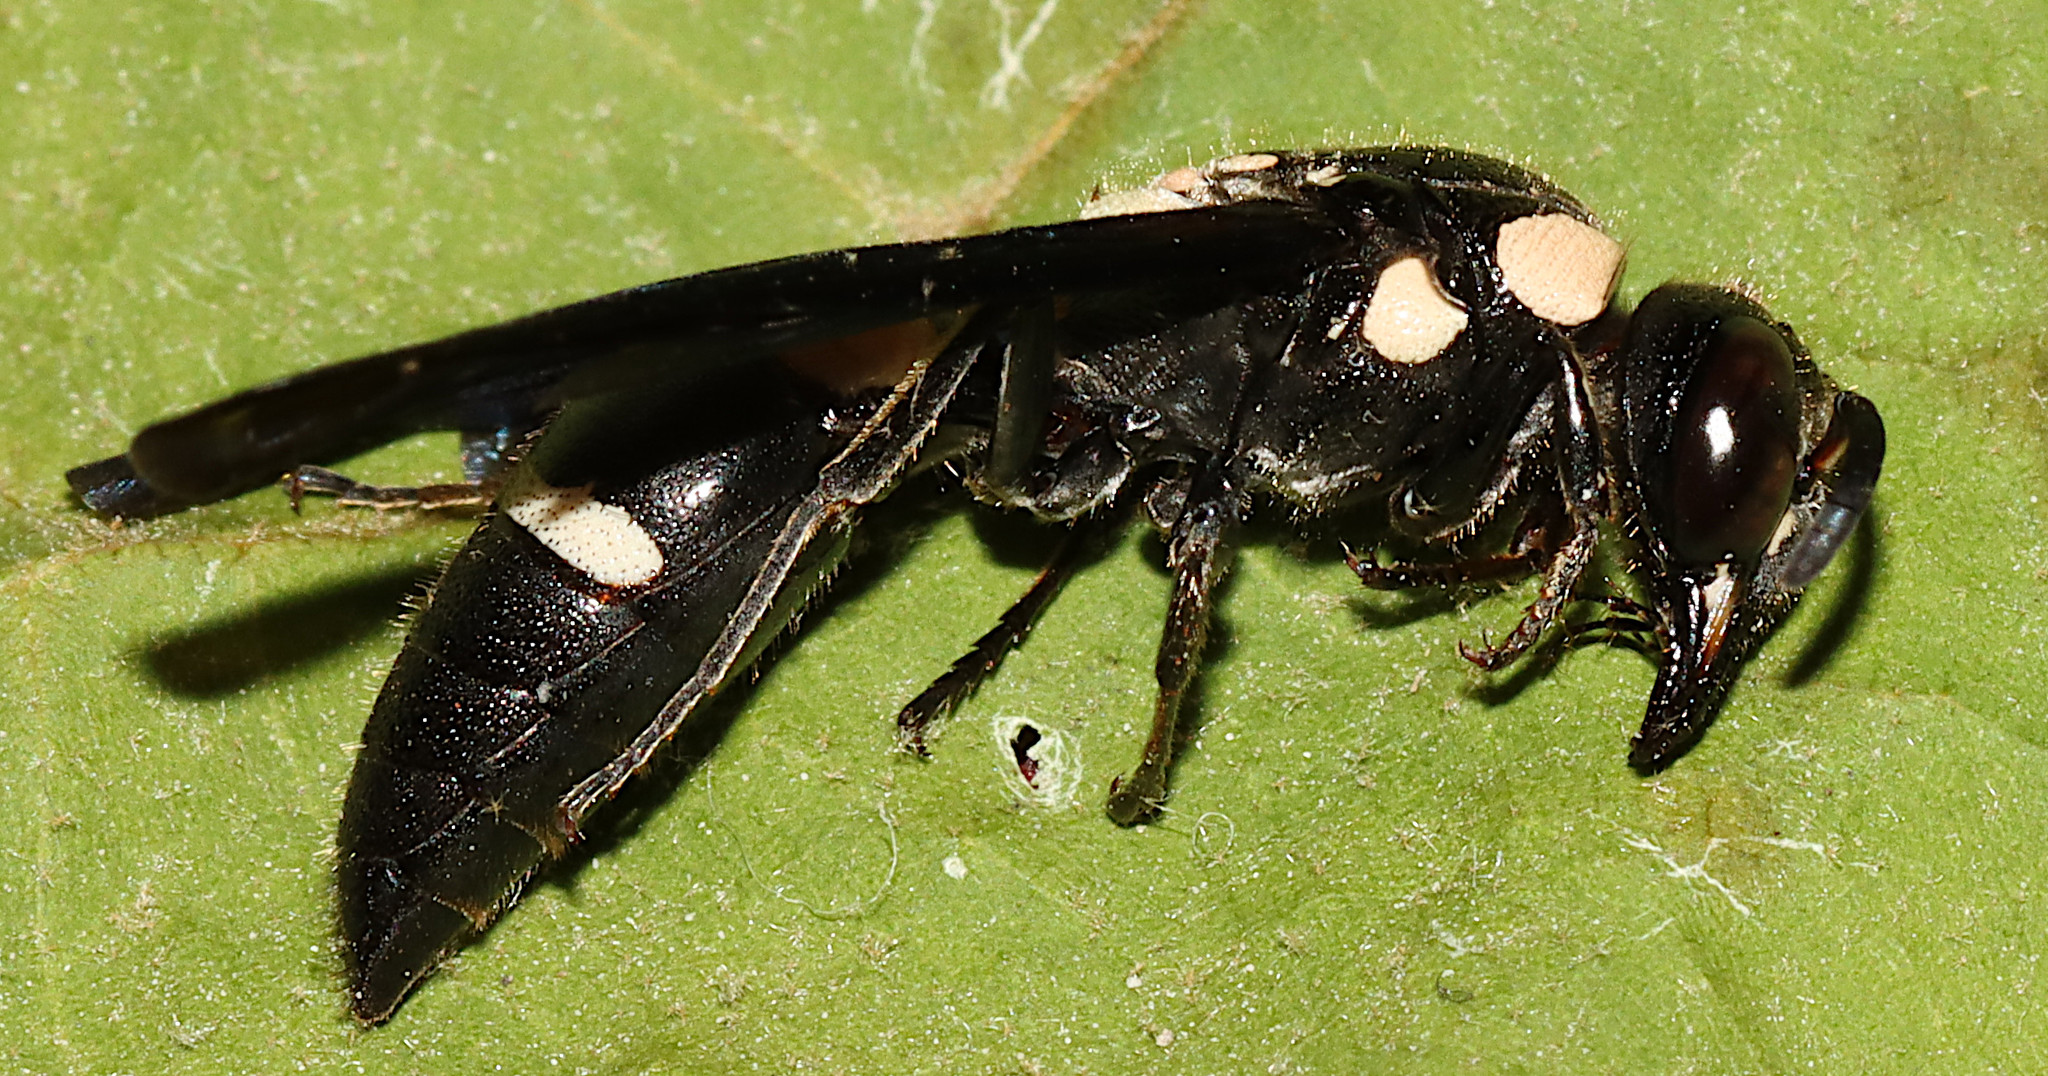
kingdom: Animalia
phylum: Arthropoda
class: Insecta
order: Hymenoptera
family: Eumenidae
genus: Pseudodynerus
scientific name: Pseudodynerus quadrisectus
